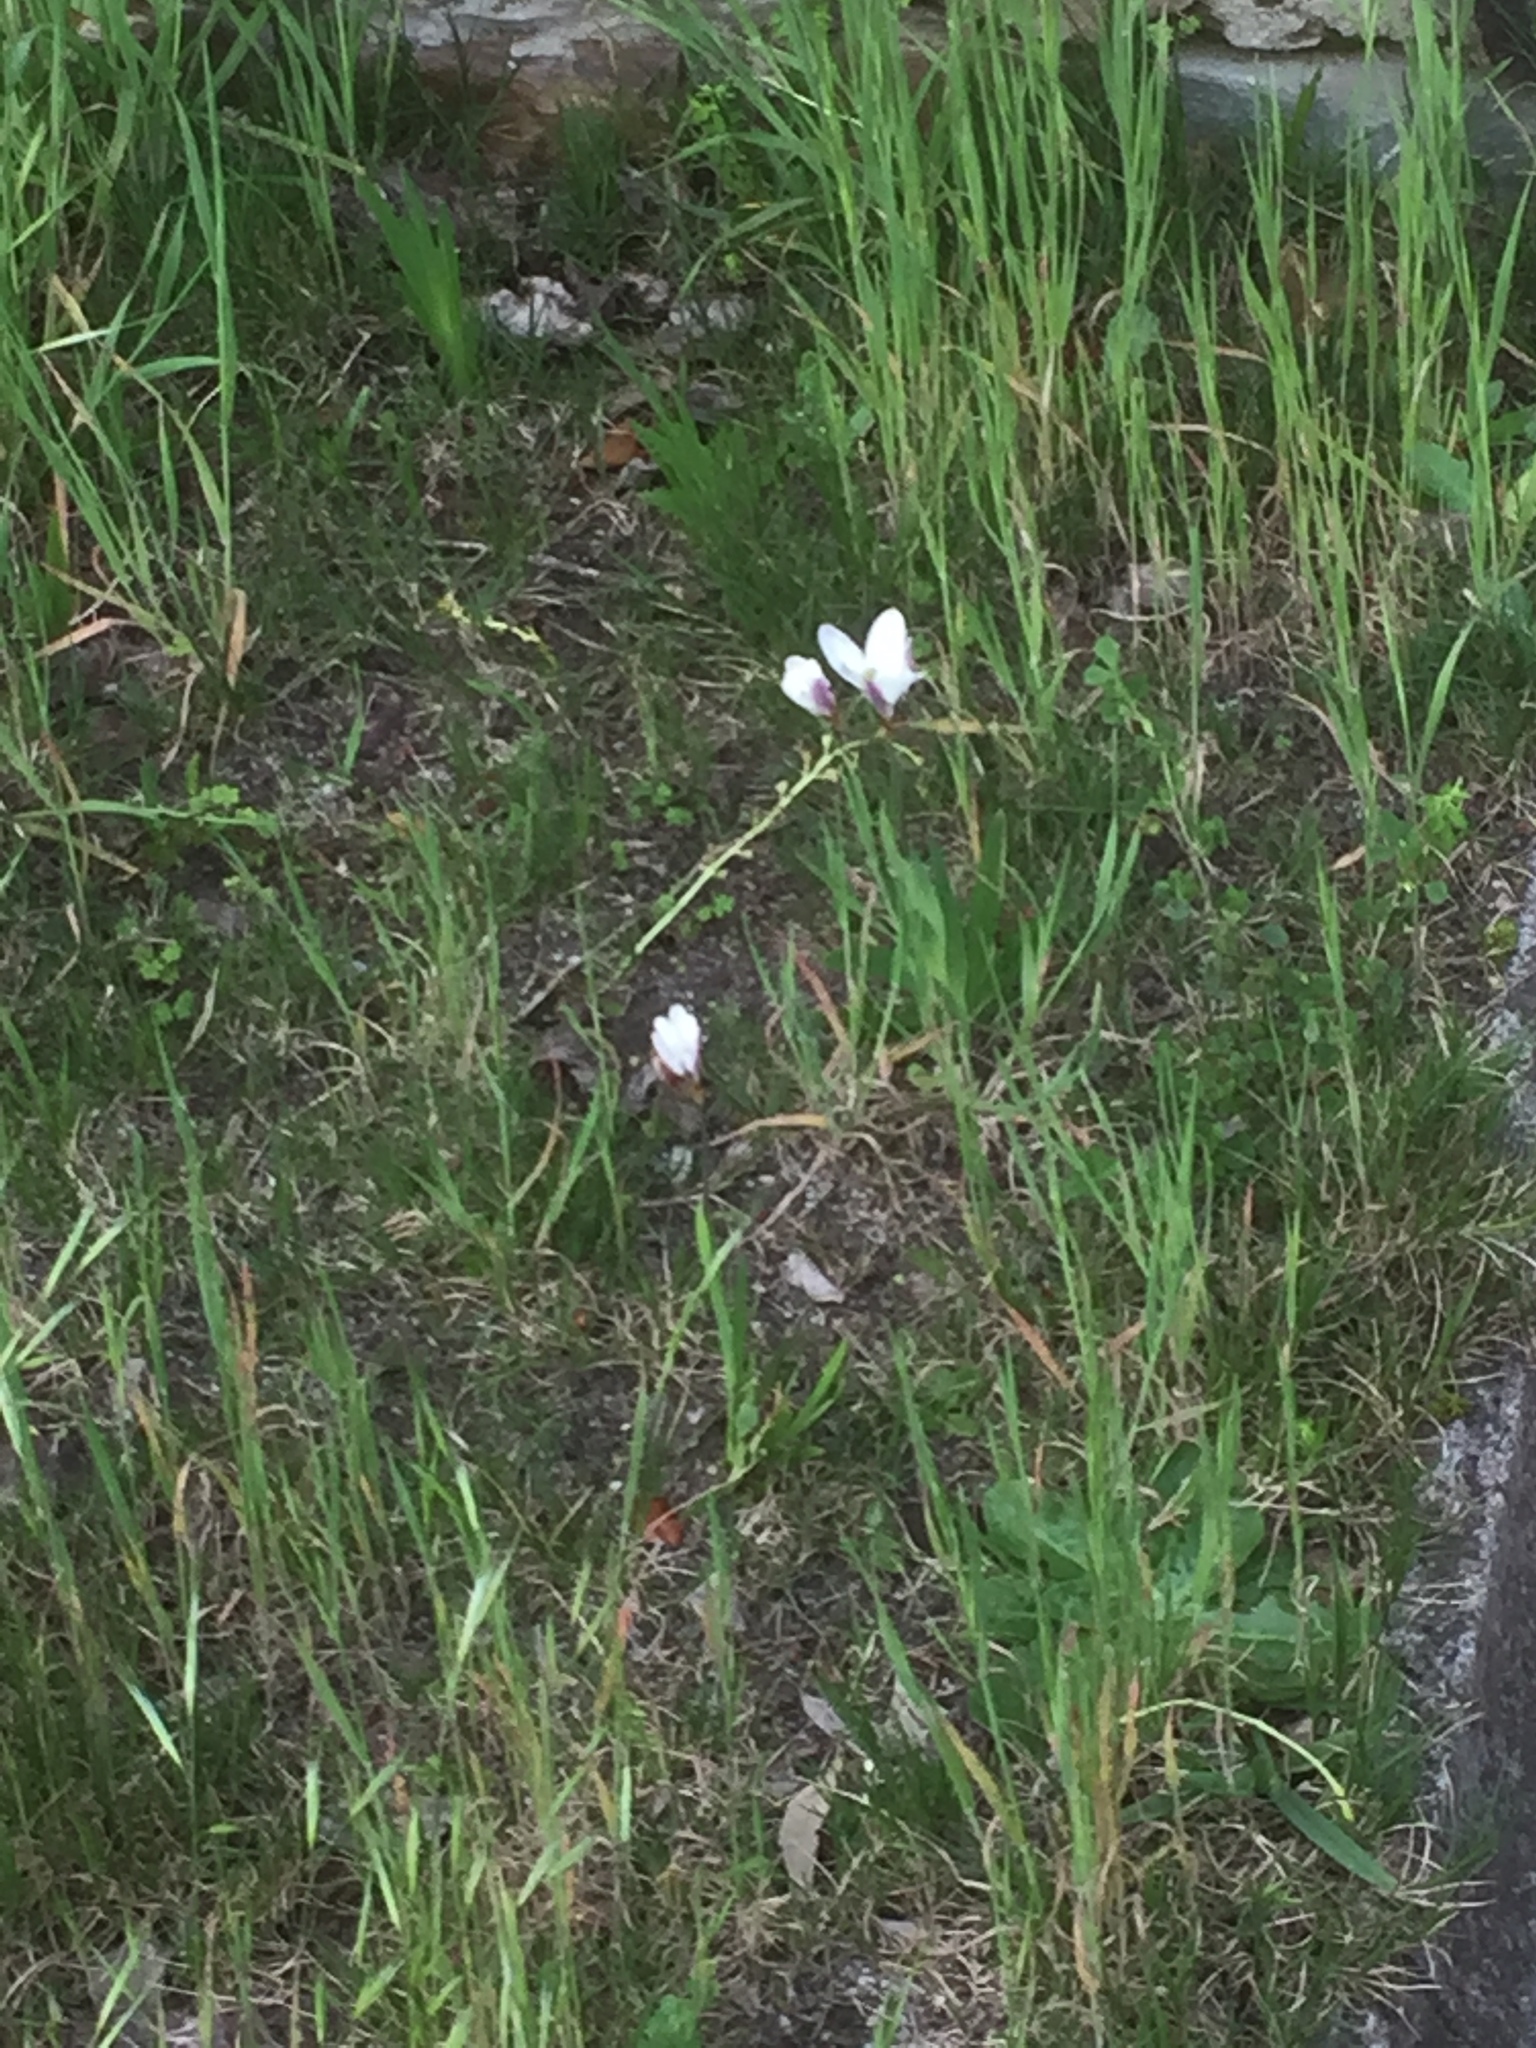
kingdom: Plantae
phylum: Tracheophyta
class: Liliopsida
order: Asparagales
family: Iridaceae
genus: Sparaxis
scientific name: Sparaxis bulbifera
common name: Harlequin-flower
